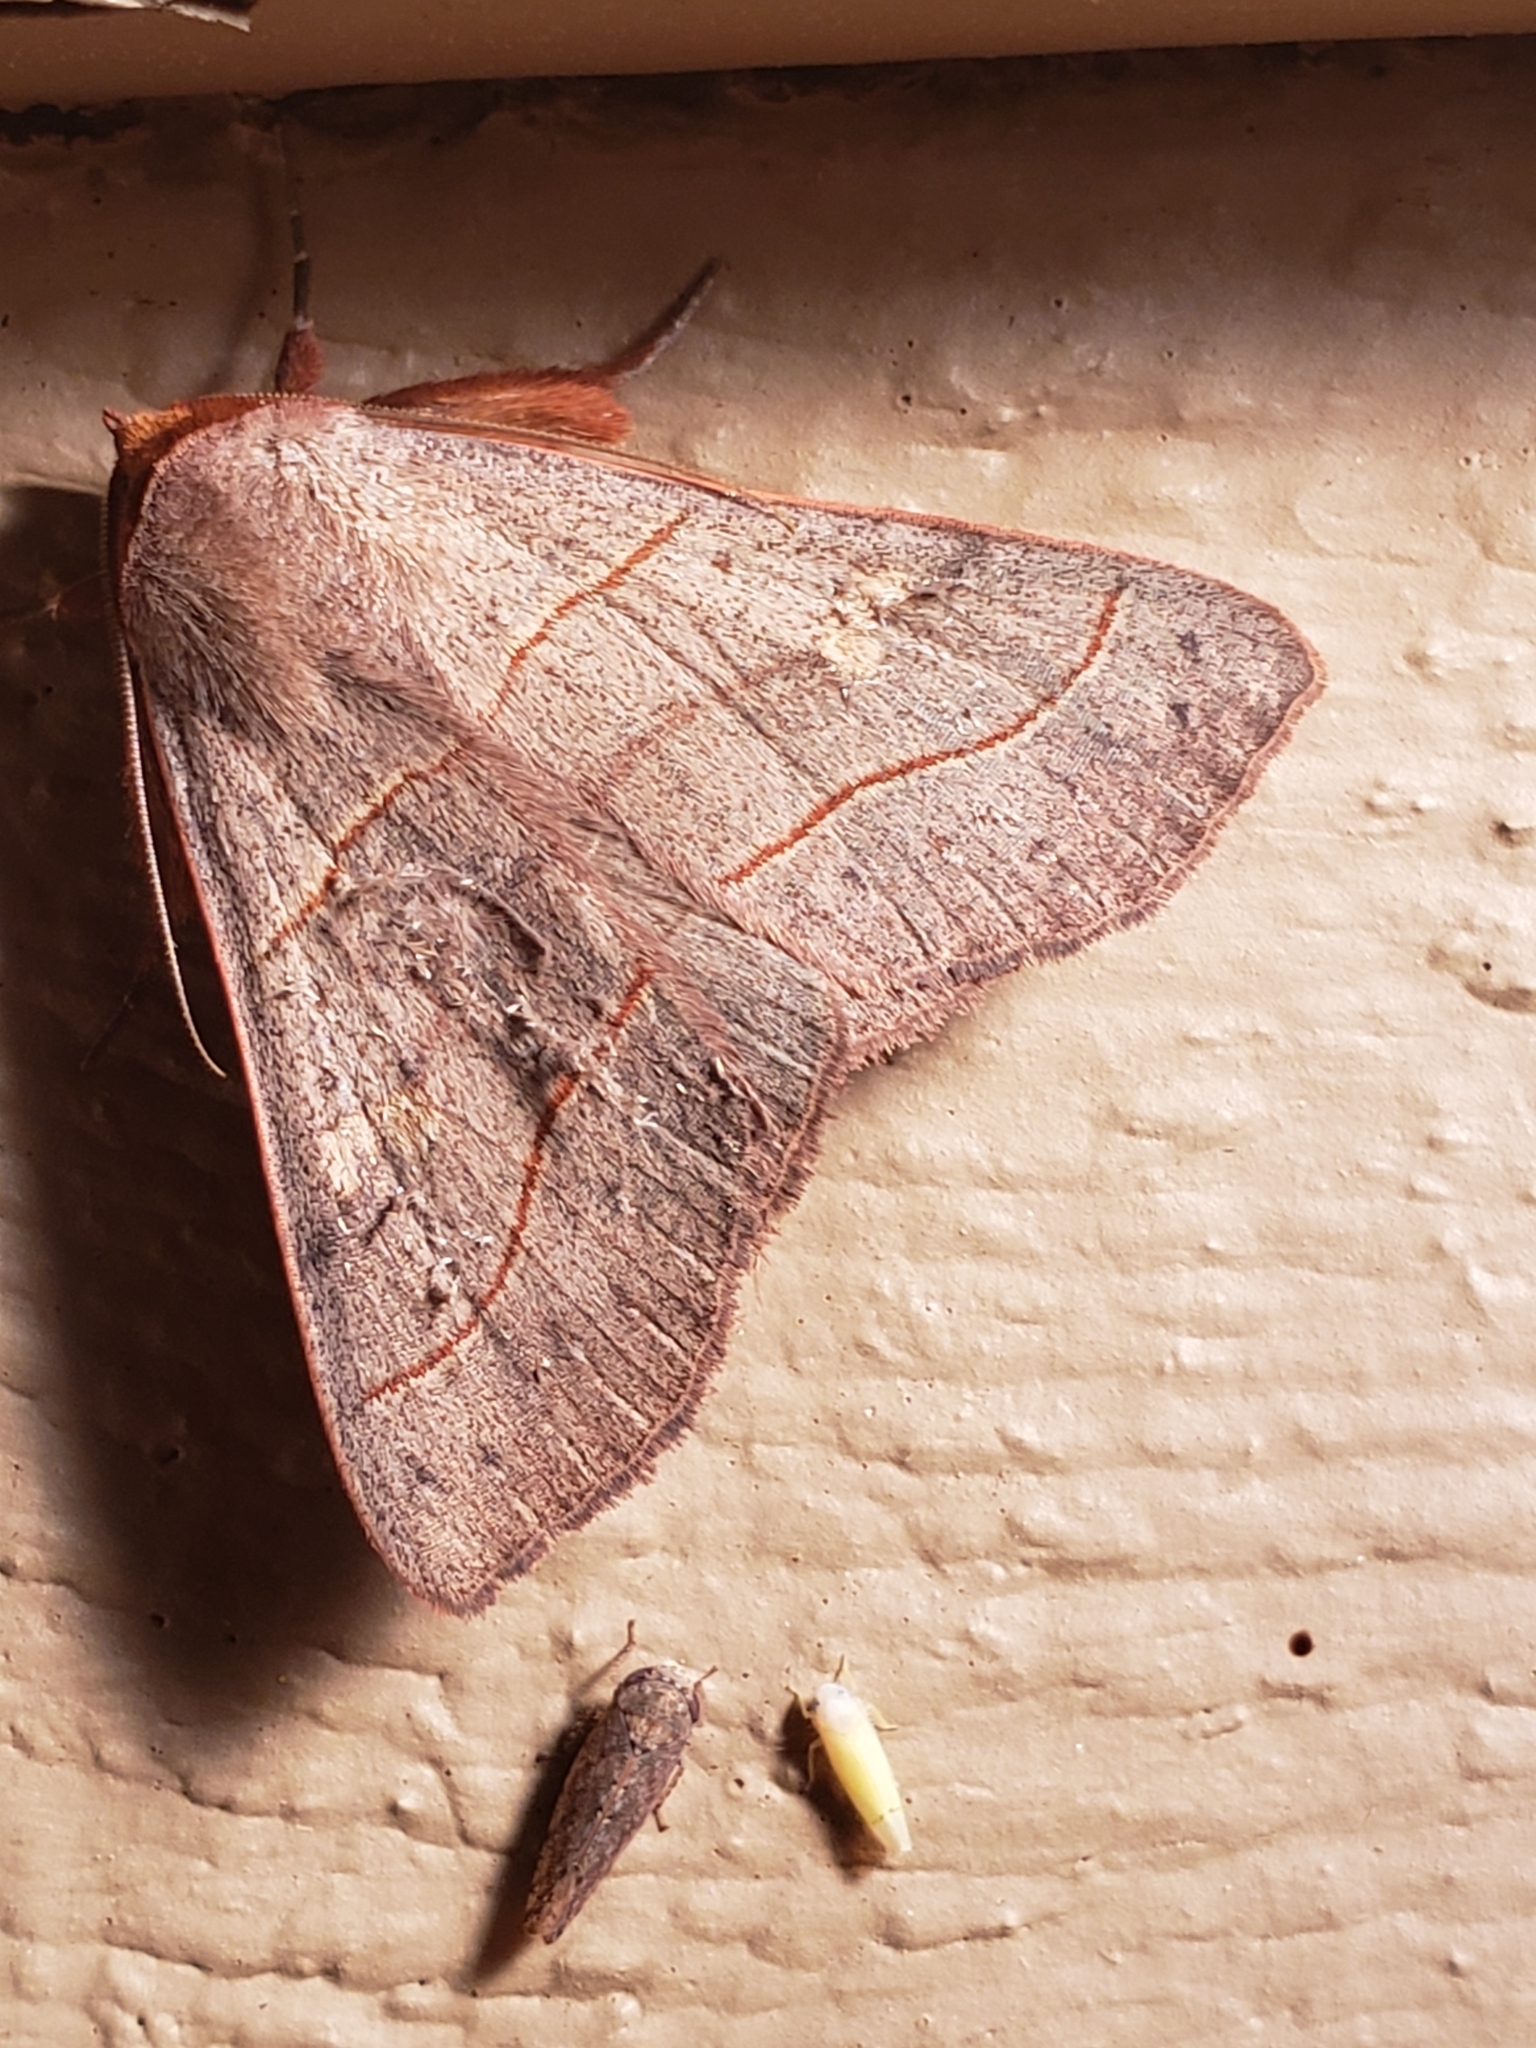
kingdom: Animalia
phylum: Arthropoda
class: Insecta
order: Lepidoptera
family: Erebidae
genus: Panopoda
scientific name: Panopoda rufimargo
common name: Red-lined panopoda moth
